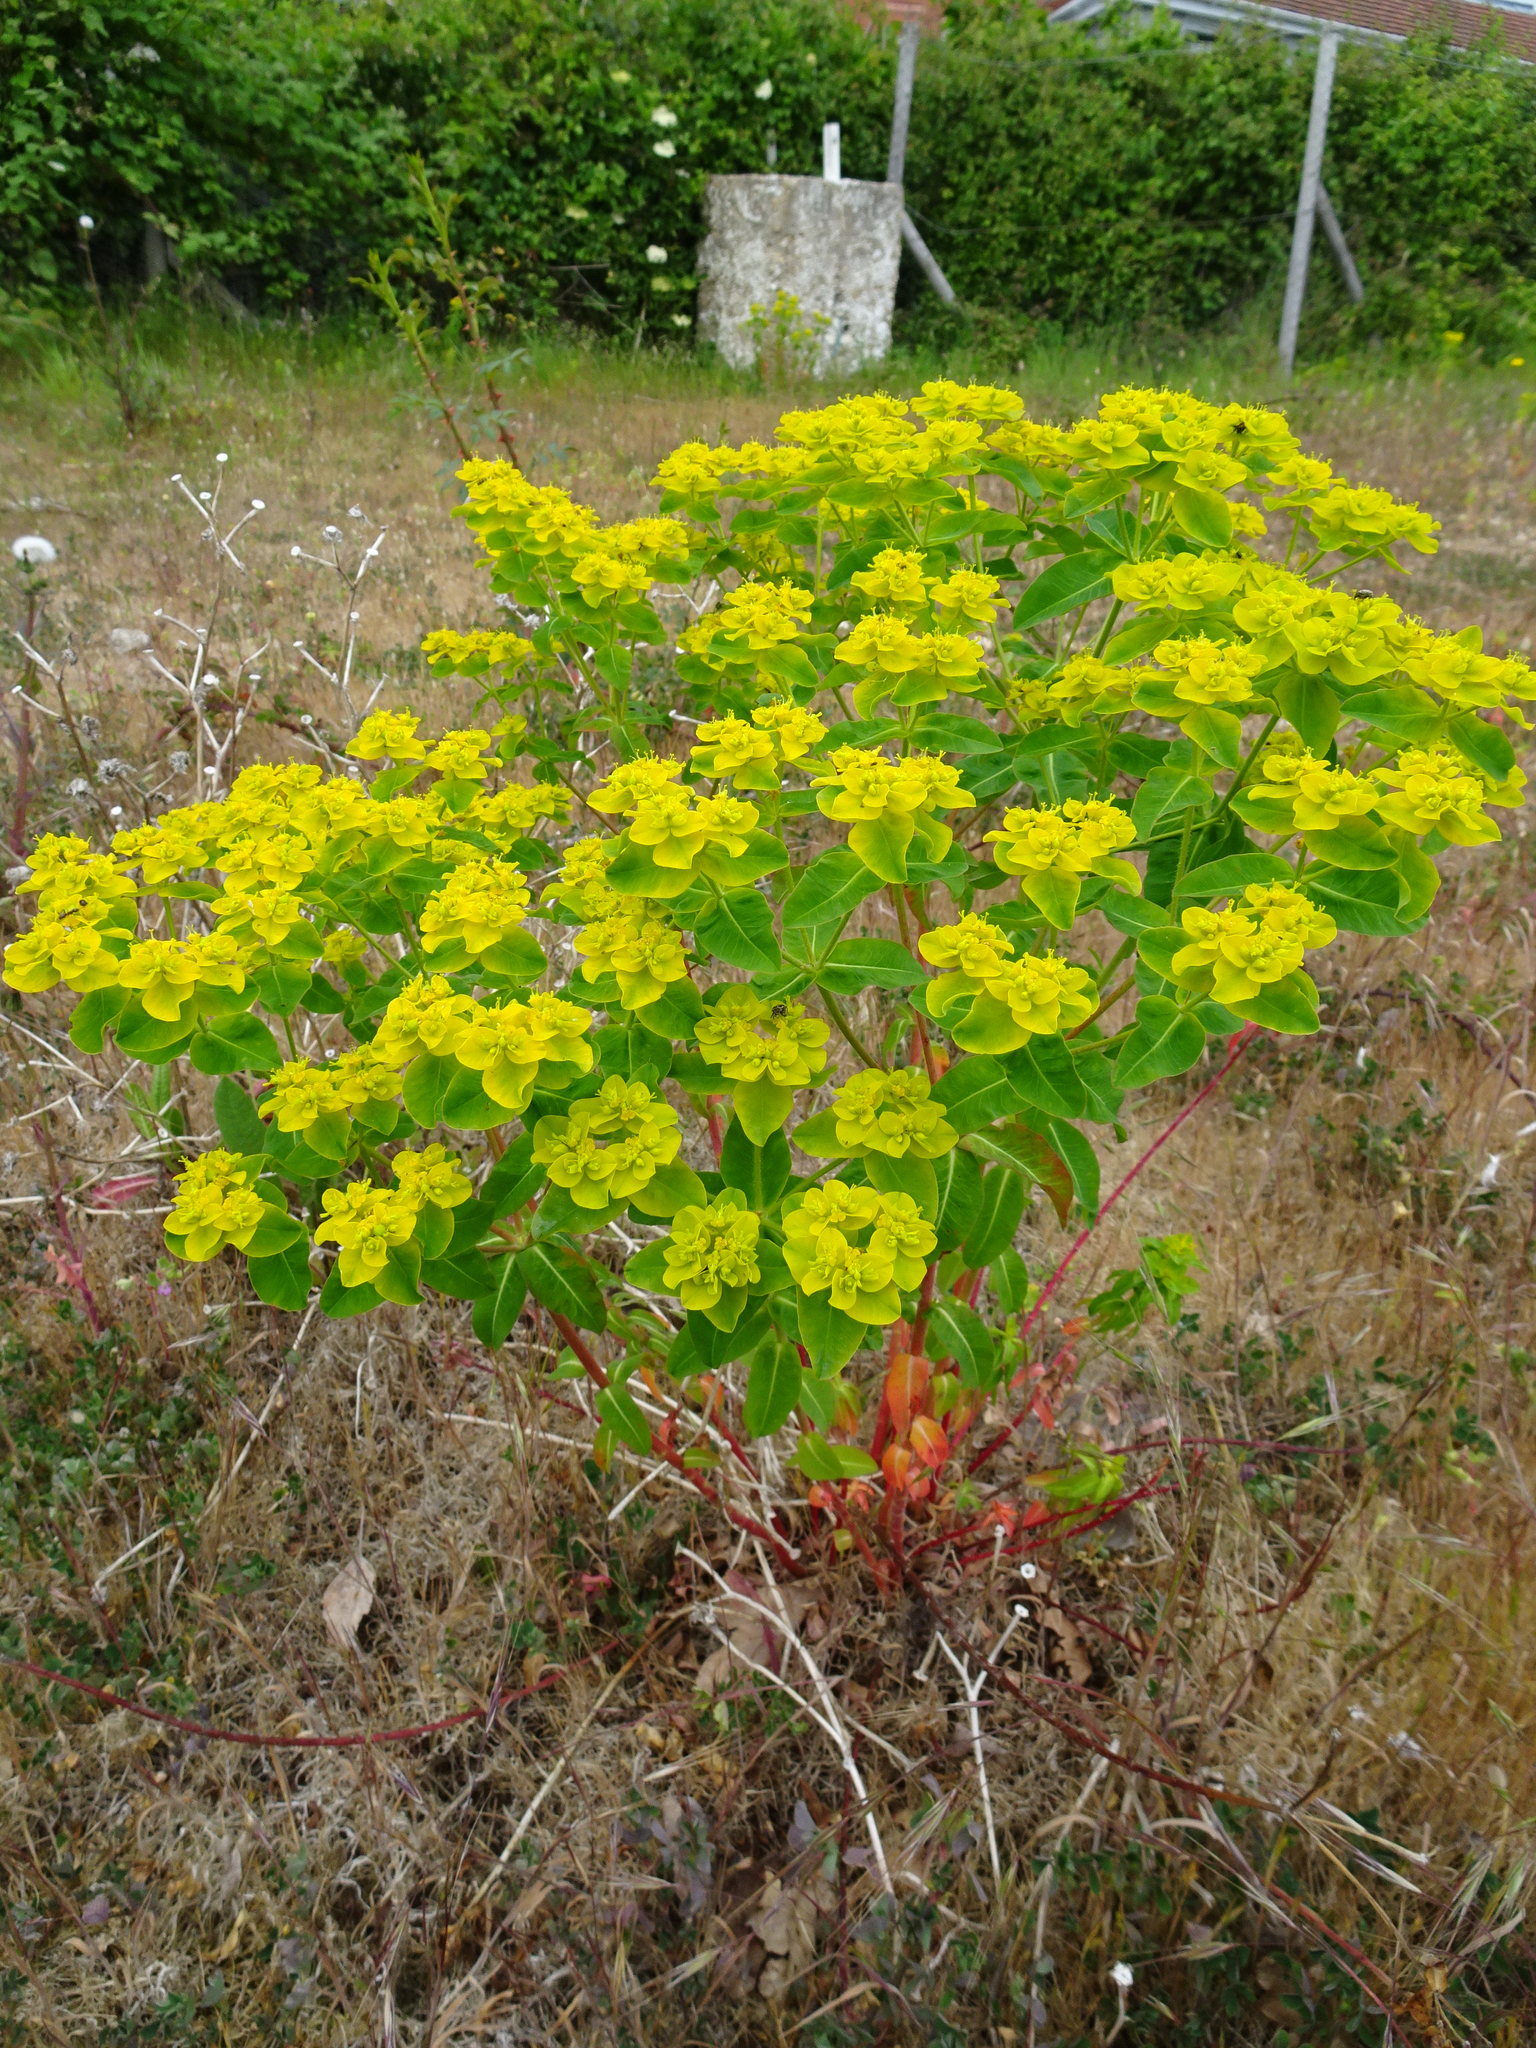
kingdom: Plantae
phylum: Tracheophyta
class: Magnoliopsida
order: Malpighiales
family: Euphorbiaceae
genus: Euphorbia
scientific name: Euphorbia oblongata
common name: Balkan spurge
